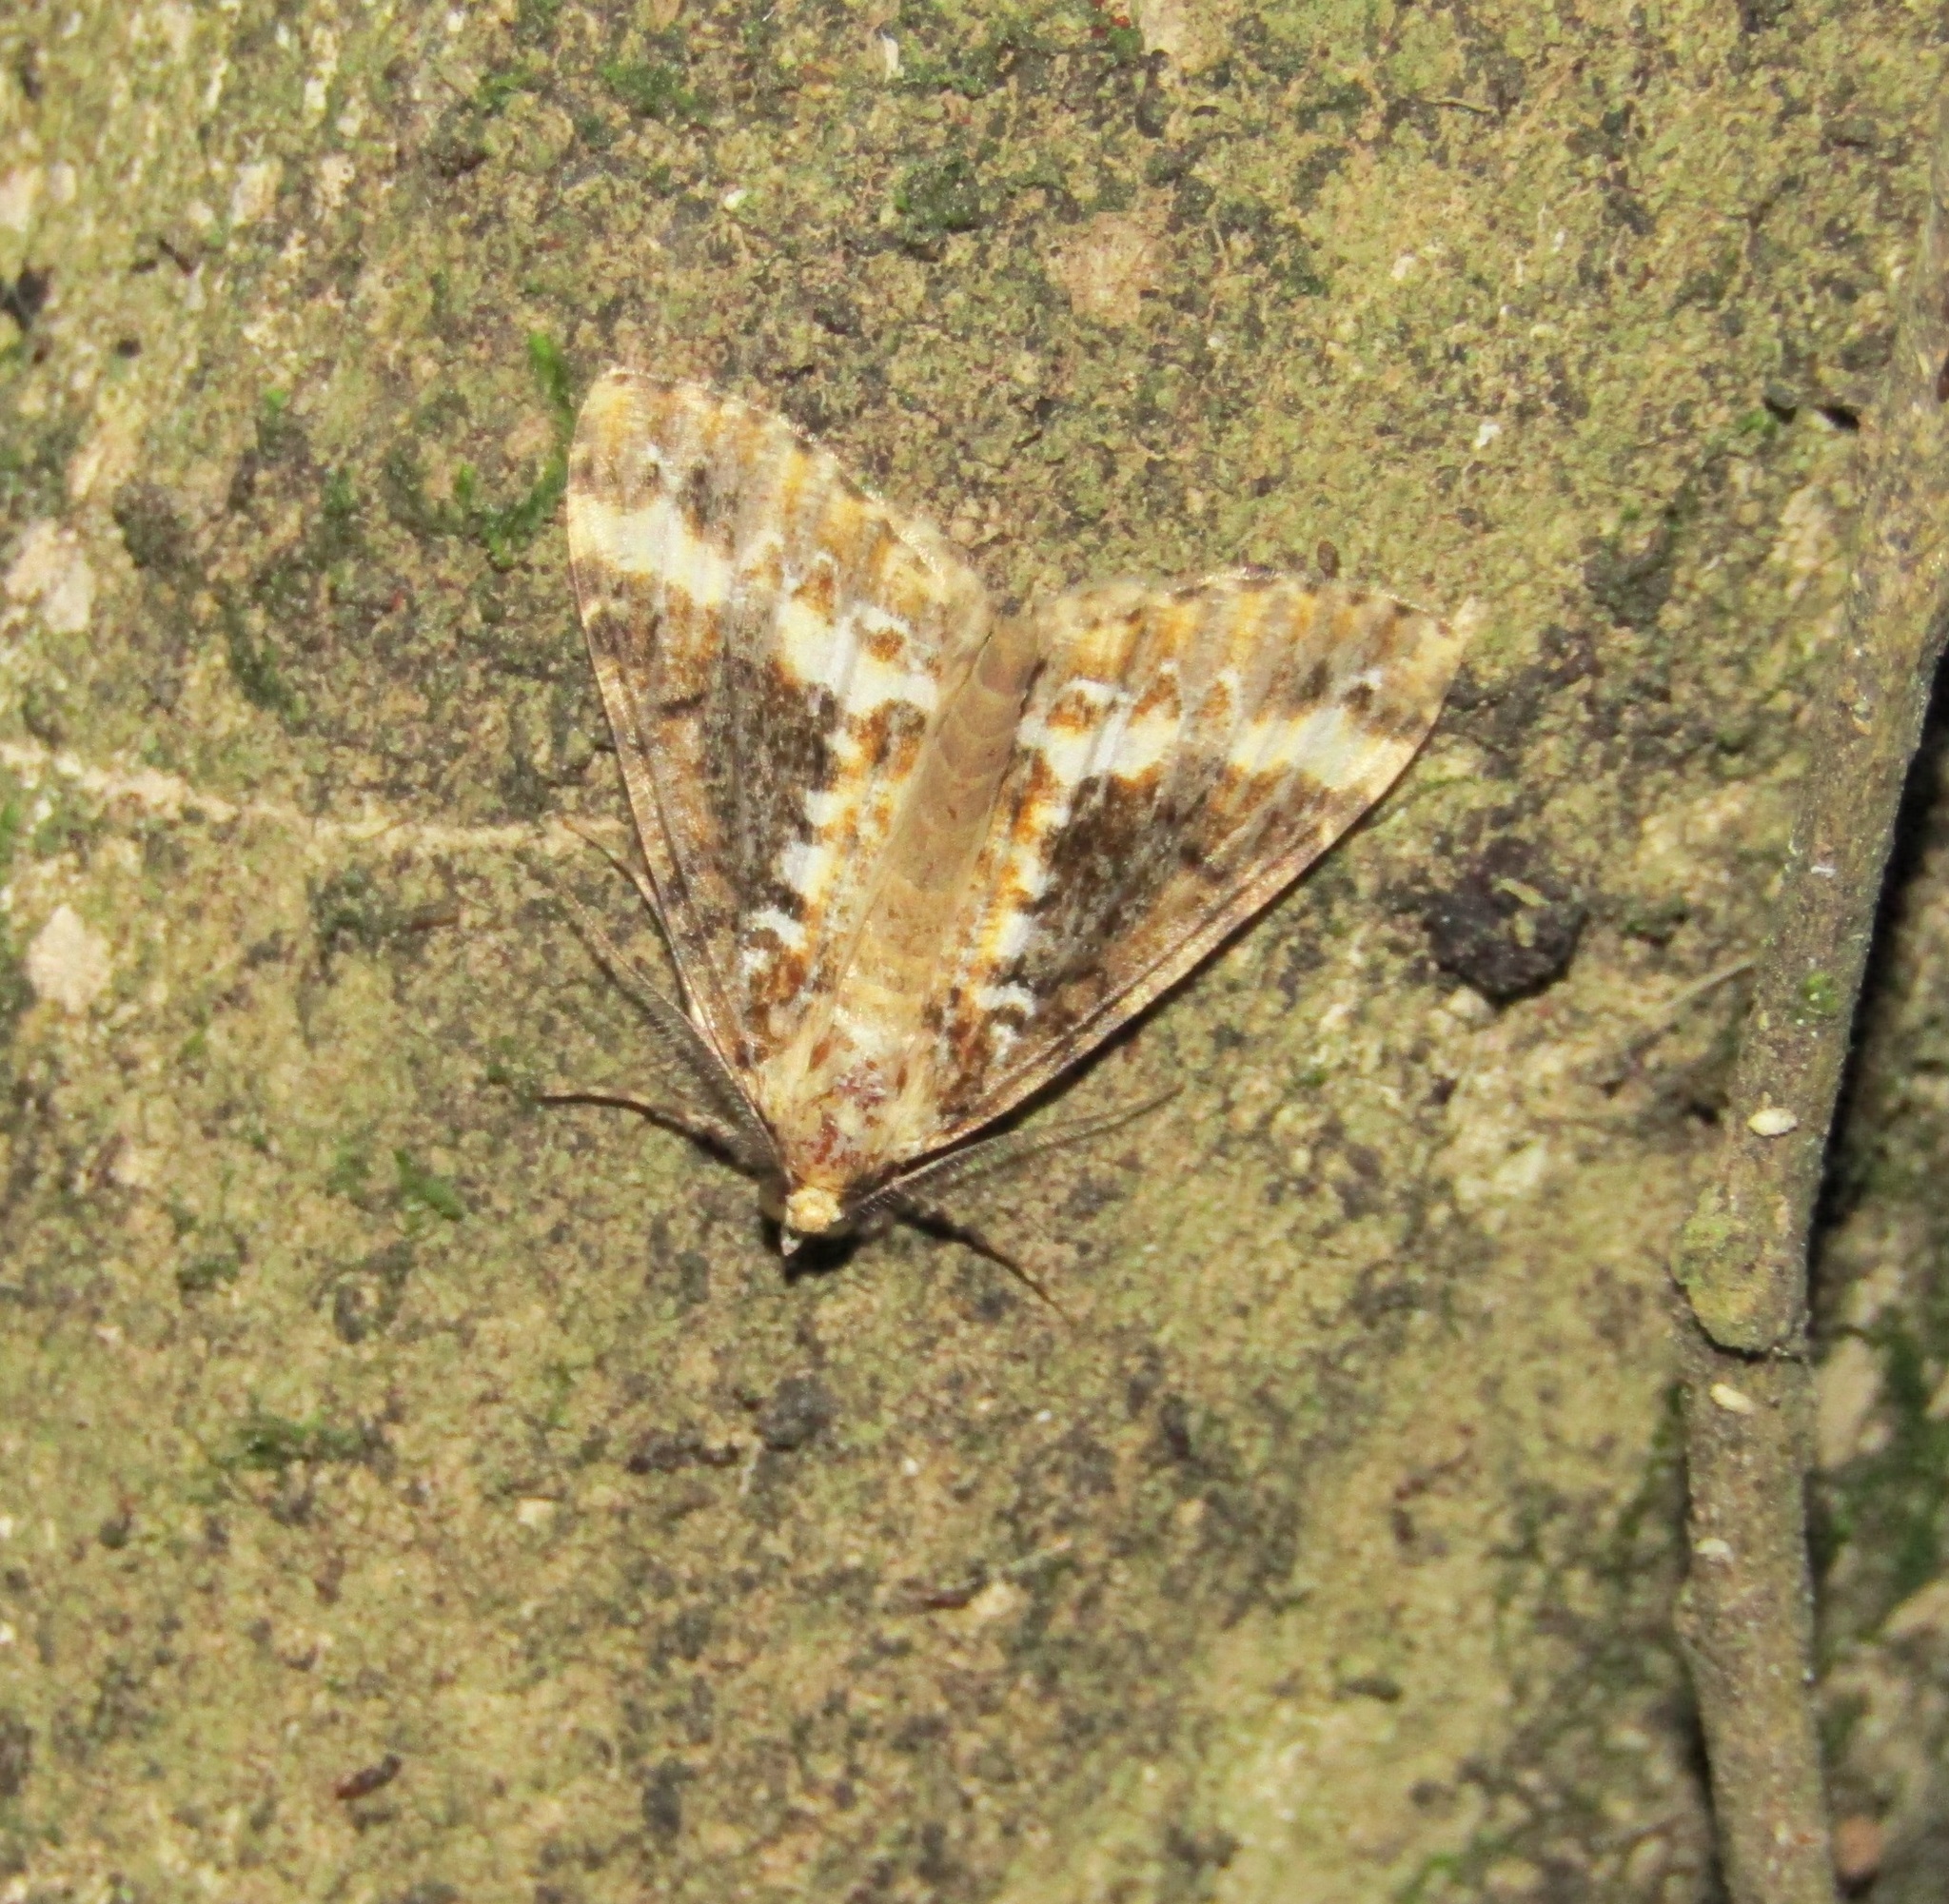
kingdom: Animalia
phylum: Arthropoda
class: Insecta
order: Lepidoptera
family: Geometridae
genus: Pseudocoremia
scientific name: Pseudocoremia leucelaea
